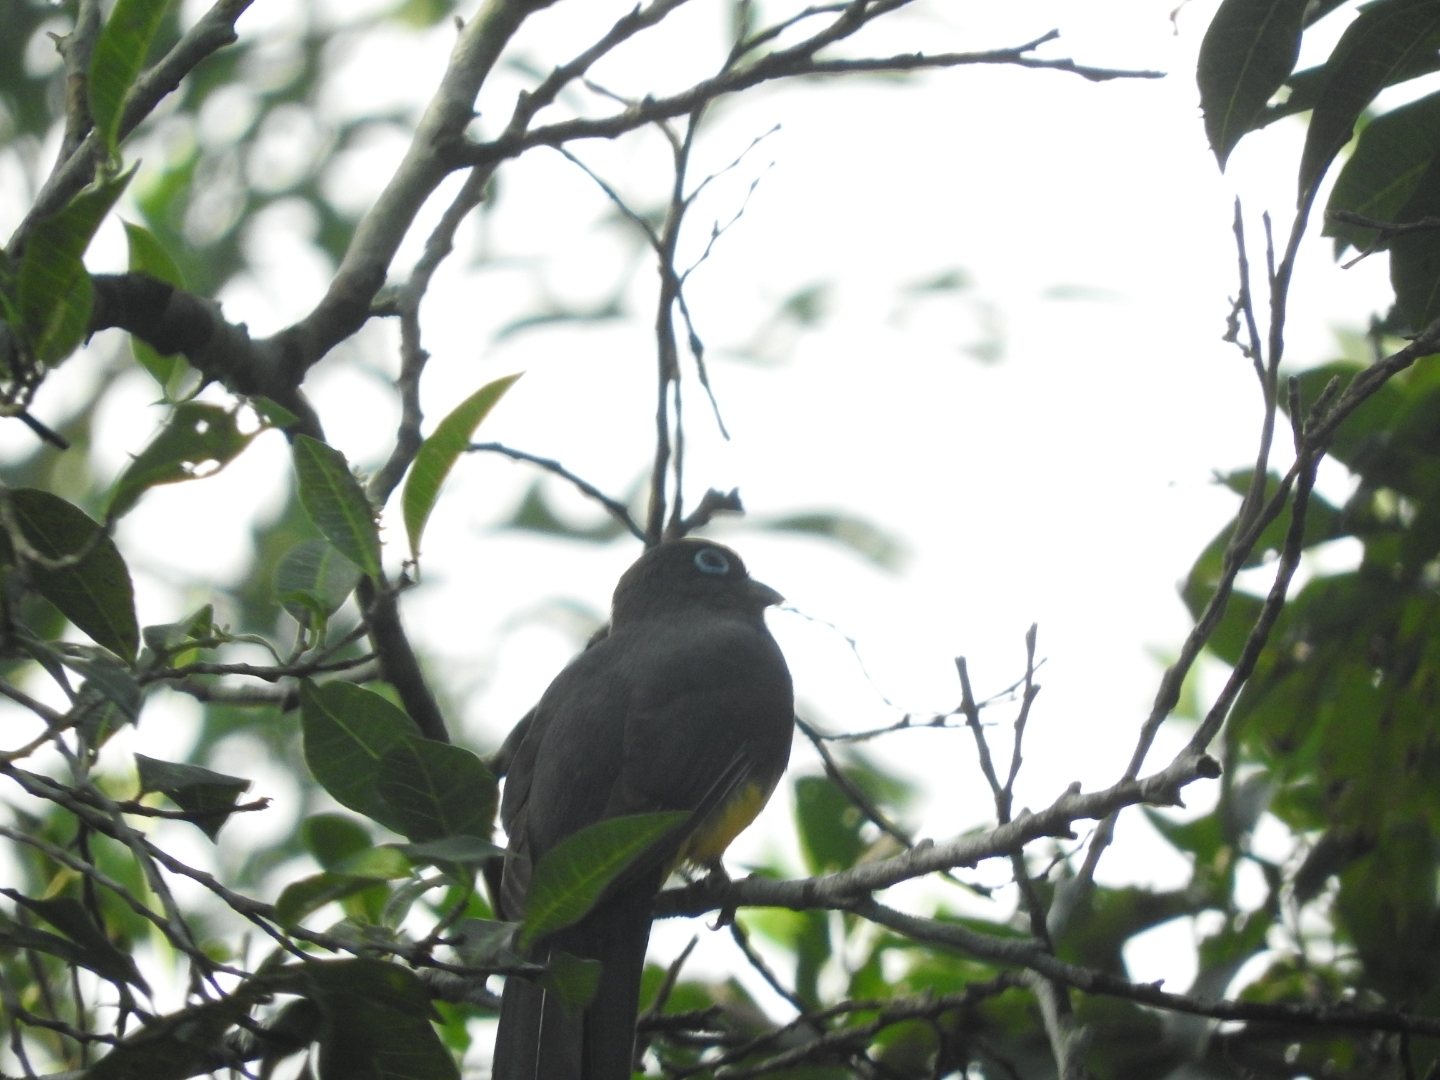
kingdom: Animalia
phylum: Chordata
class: Aves
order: Trogoniformes
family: Trogonidae
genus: Trogon
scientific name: Trogon melanocephalus
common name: Black-headed trogon
